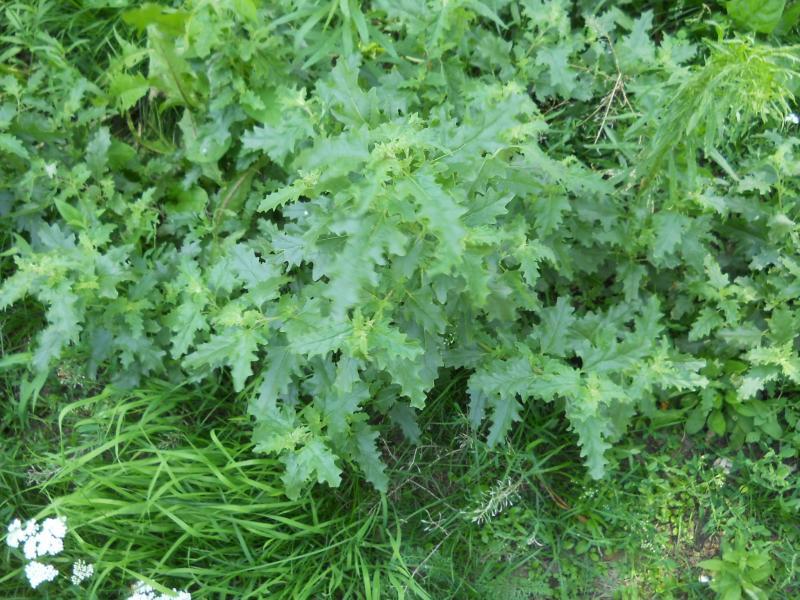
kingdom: Plantae
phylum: Tracheophyta
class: Magnoliopsida
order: Caryophyllales
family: Amaranthaceae
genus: Atriplex
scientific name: Atriplex tatarica
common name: Tatarian orache
